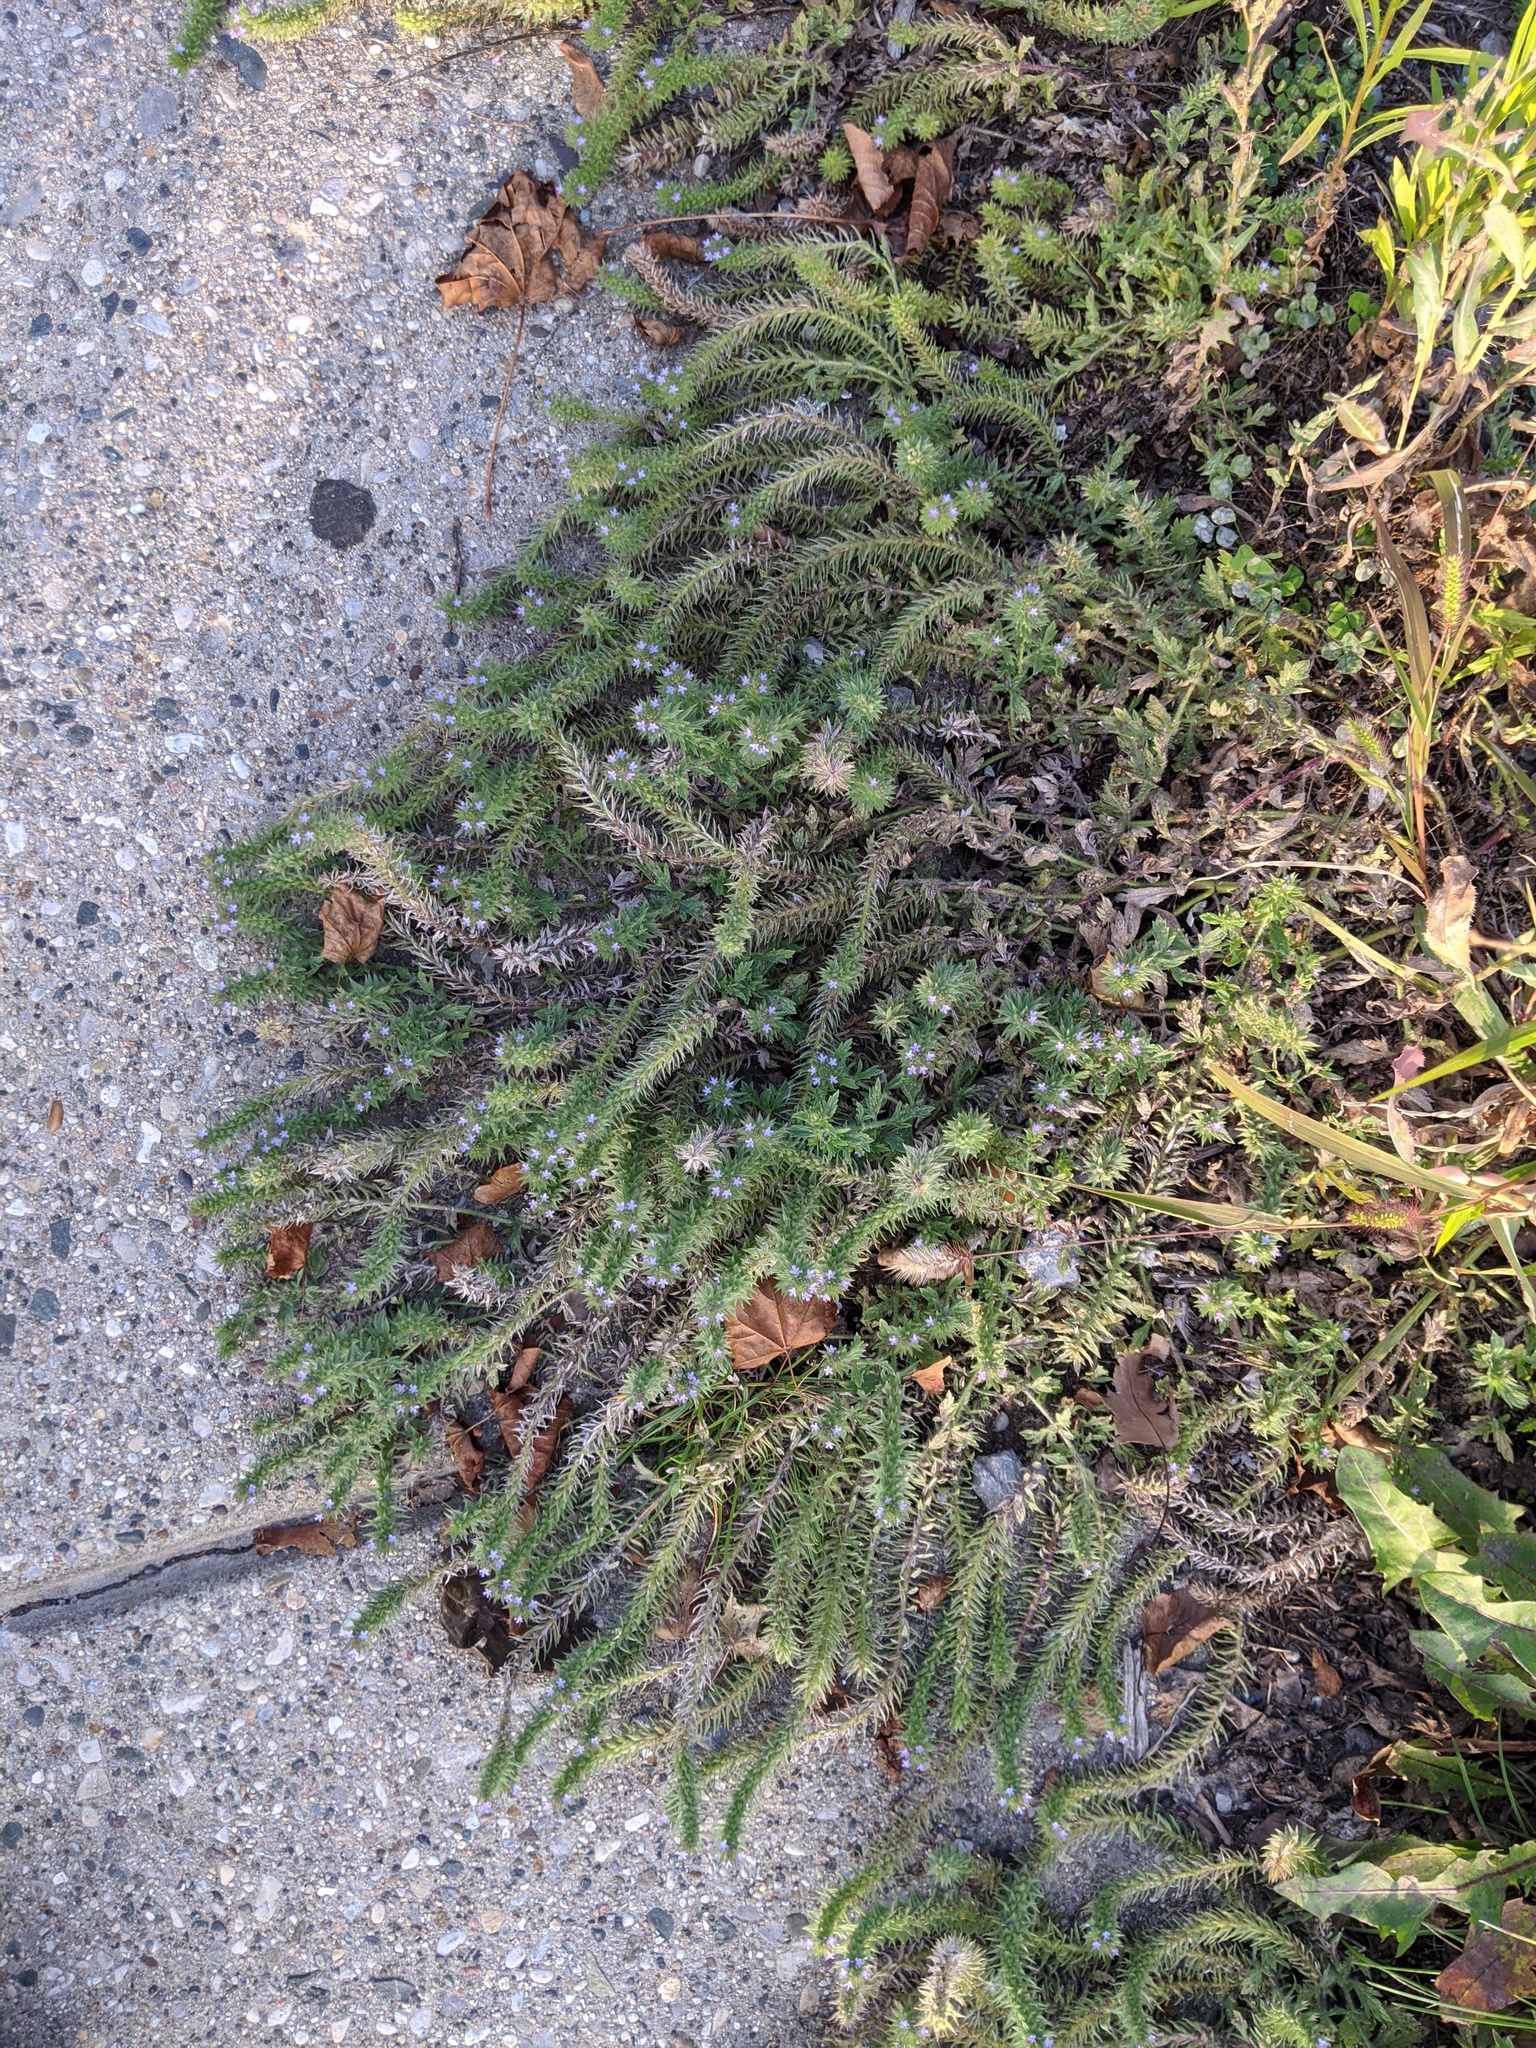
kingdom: Plantae
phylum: Tracheophyta
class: Magnoliopsida
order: Lamiales
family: Verbenaceae
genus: Verbena
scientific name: Verbena bracteata
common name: Bracted vervain
